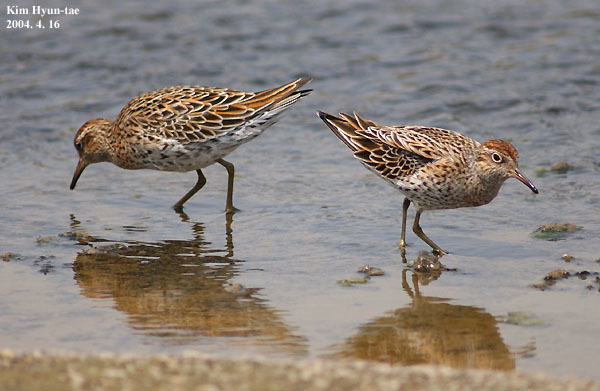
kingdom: Animalia
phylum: Chordata
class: Aves
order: Charadriiformes
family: Scolopacidae
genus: Calidris
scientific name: Calidris acuminata
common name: Sharp-tailed sandpiper
